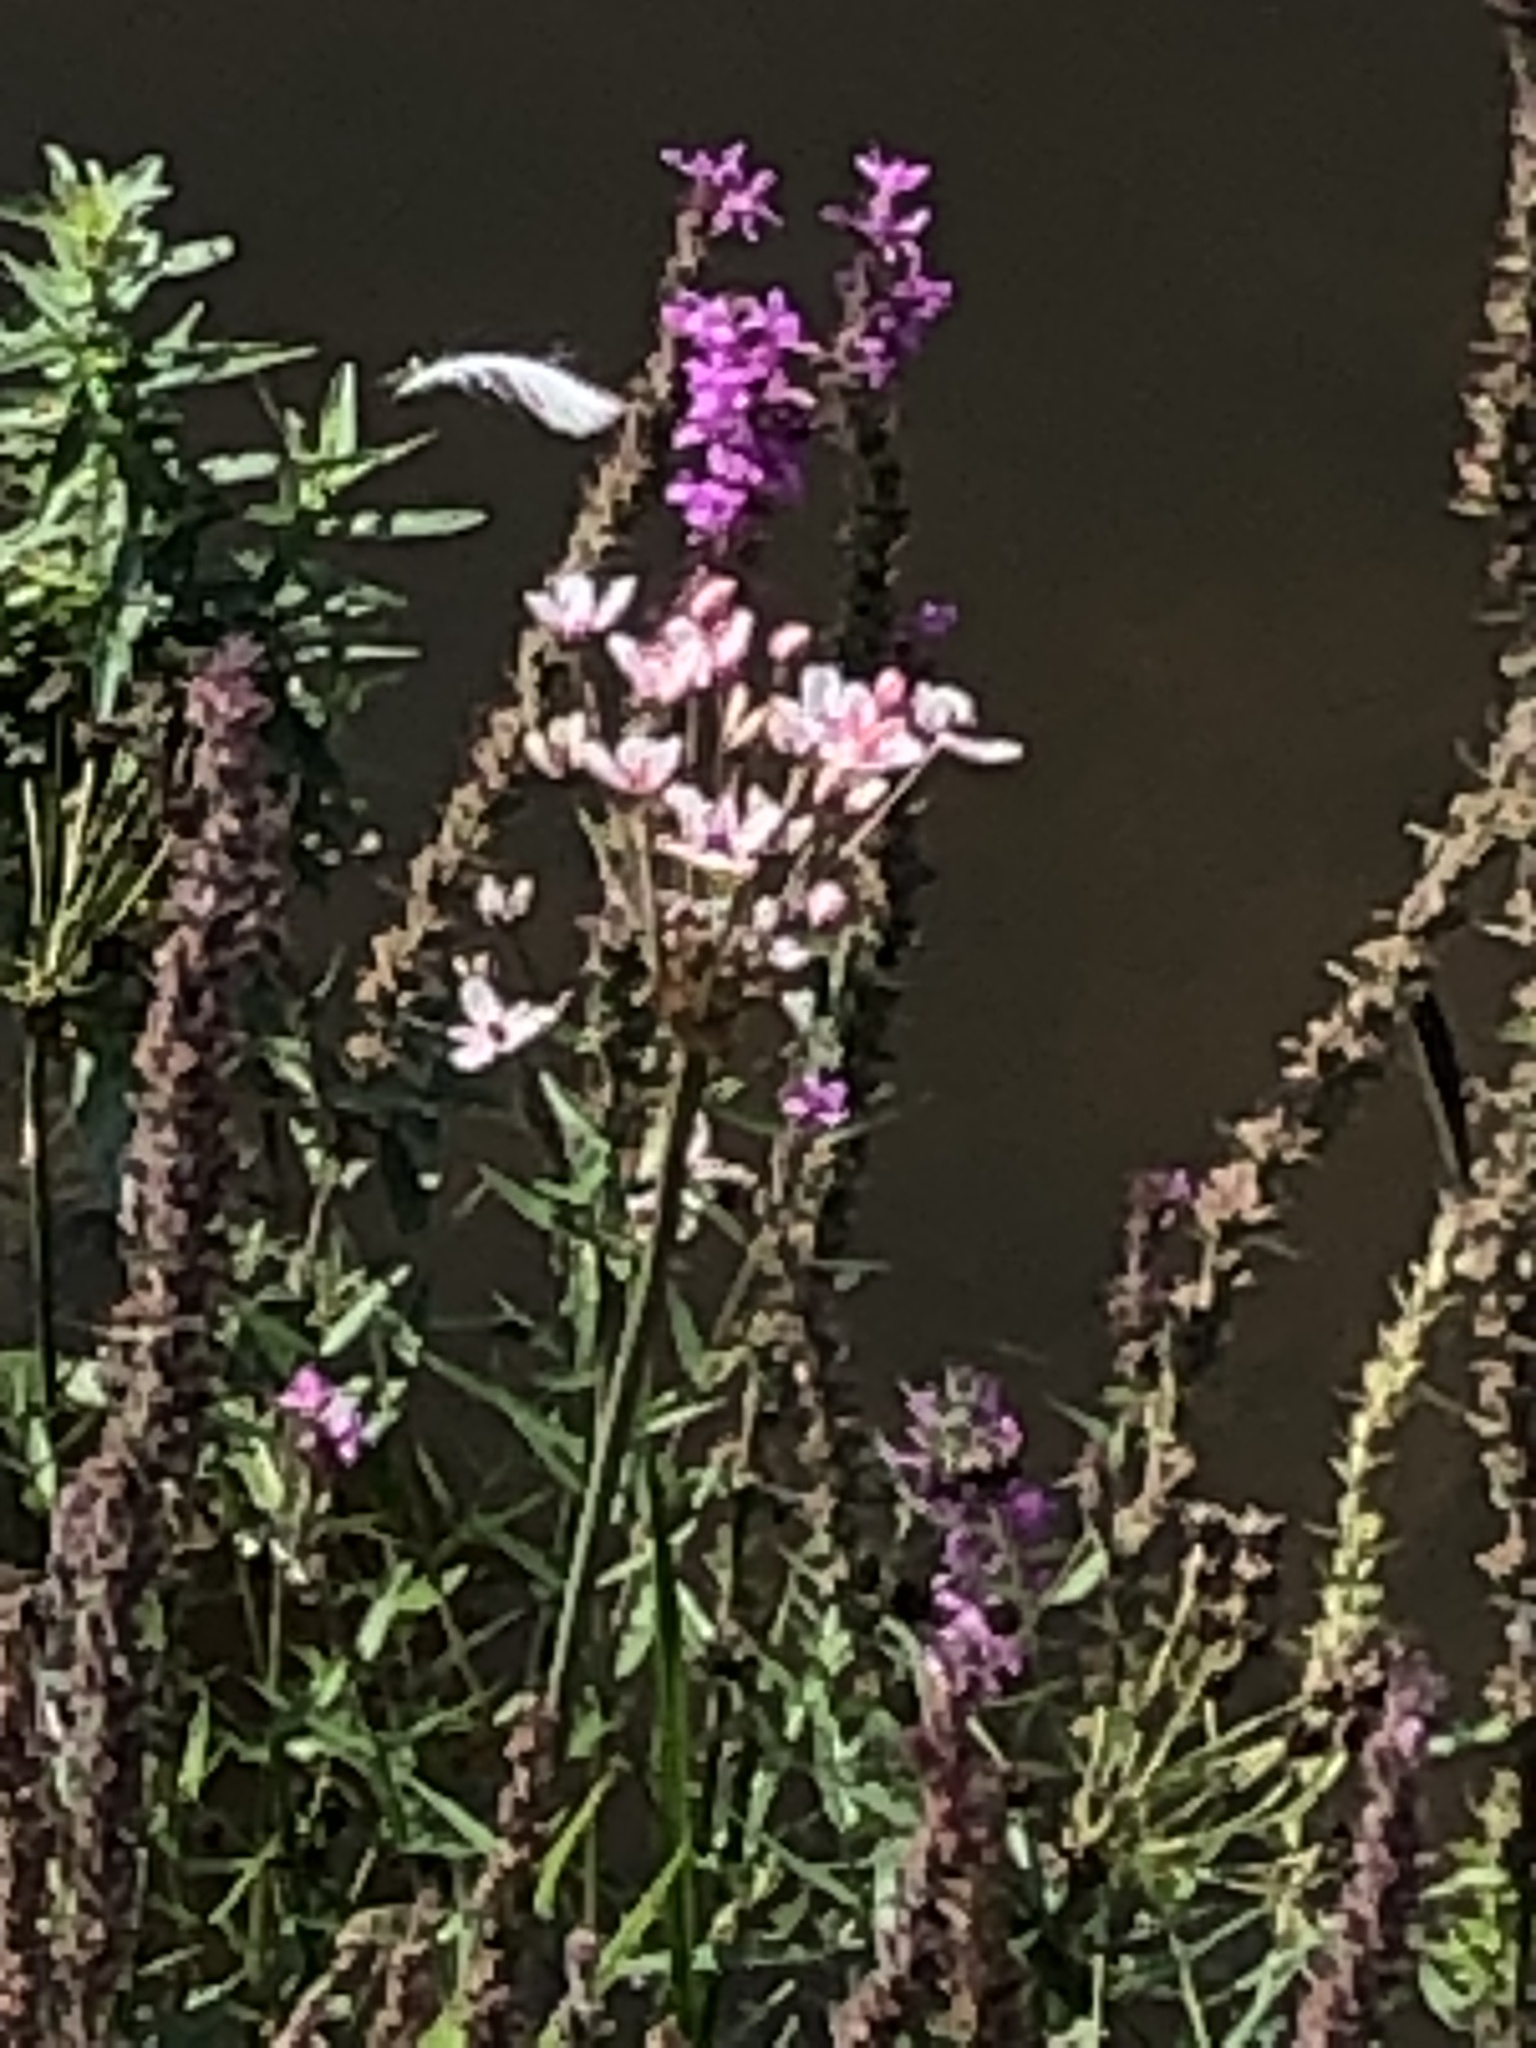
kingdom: Plantae
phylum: Tracheophyta
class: Liliopsida
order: Alismatales
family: Butomaceae
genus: Butomus
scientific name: Butomus umbellatus
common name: Flowering-rush
